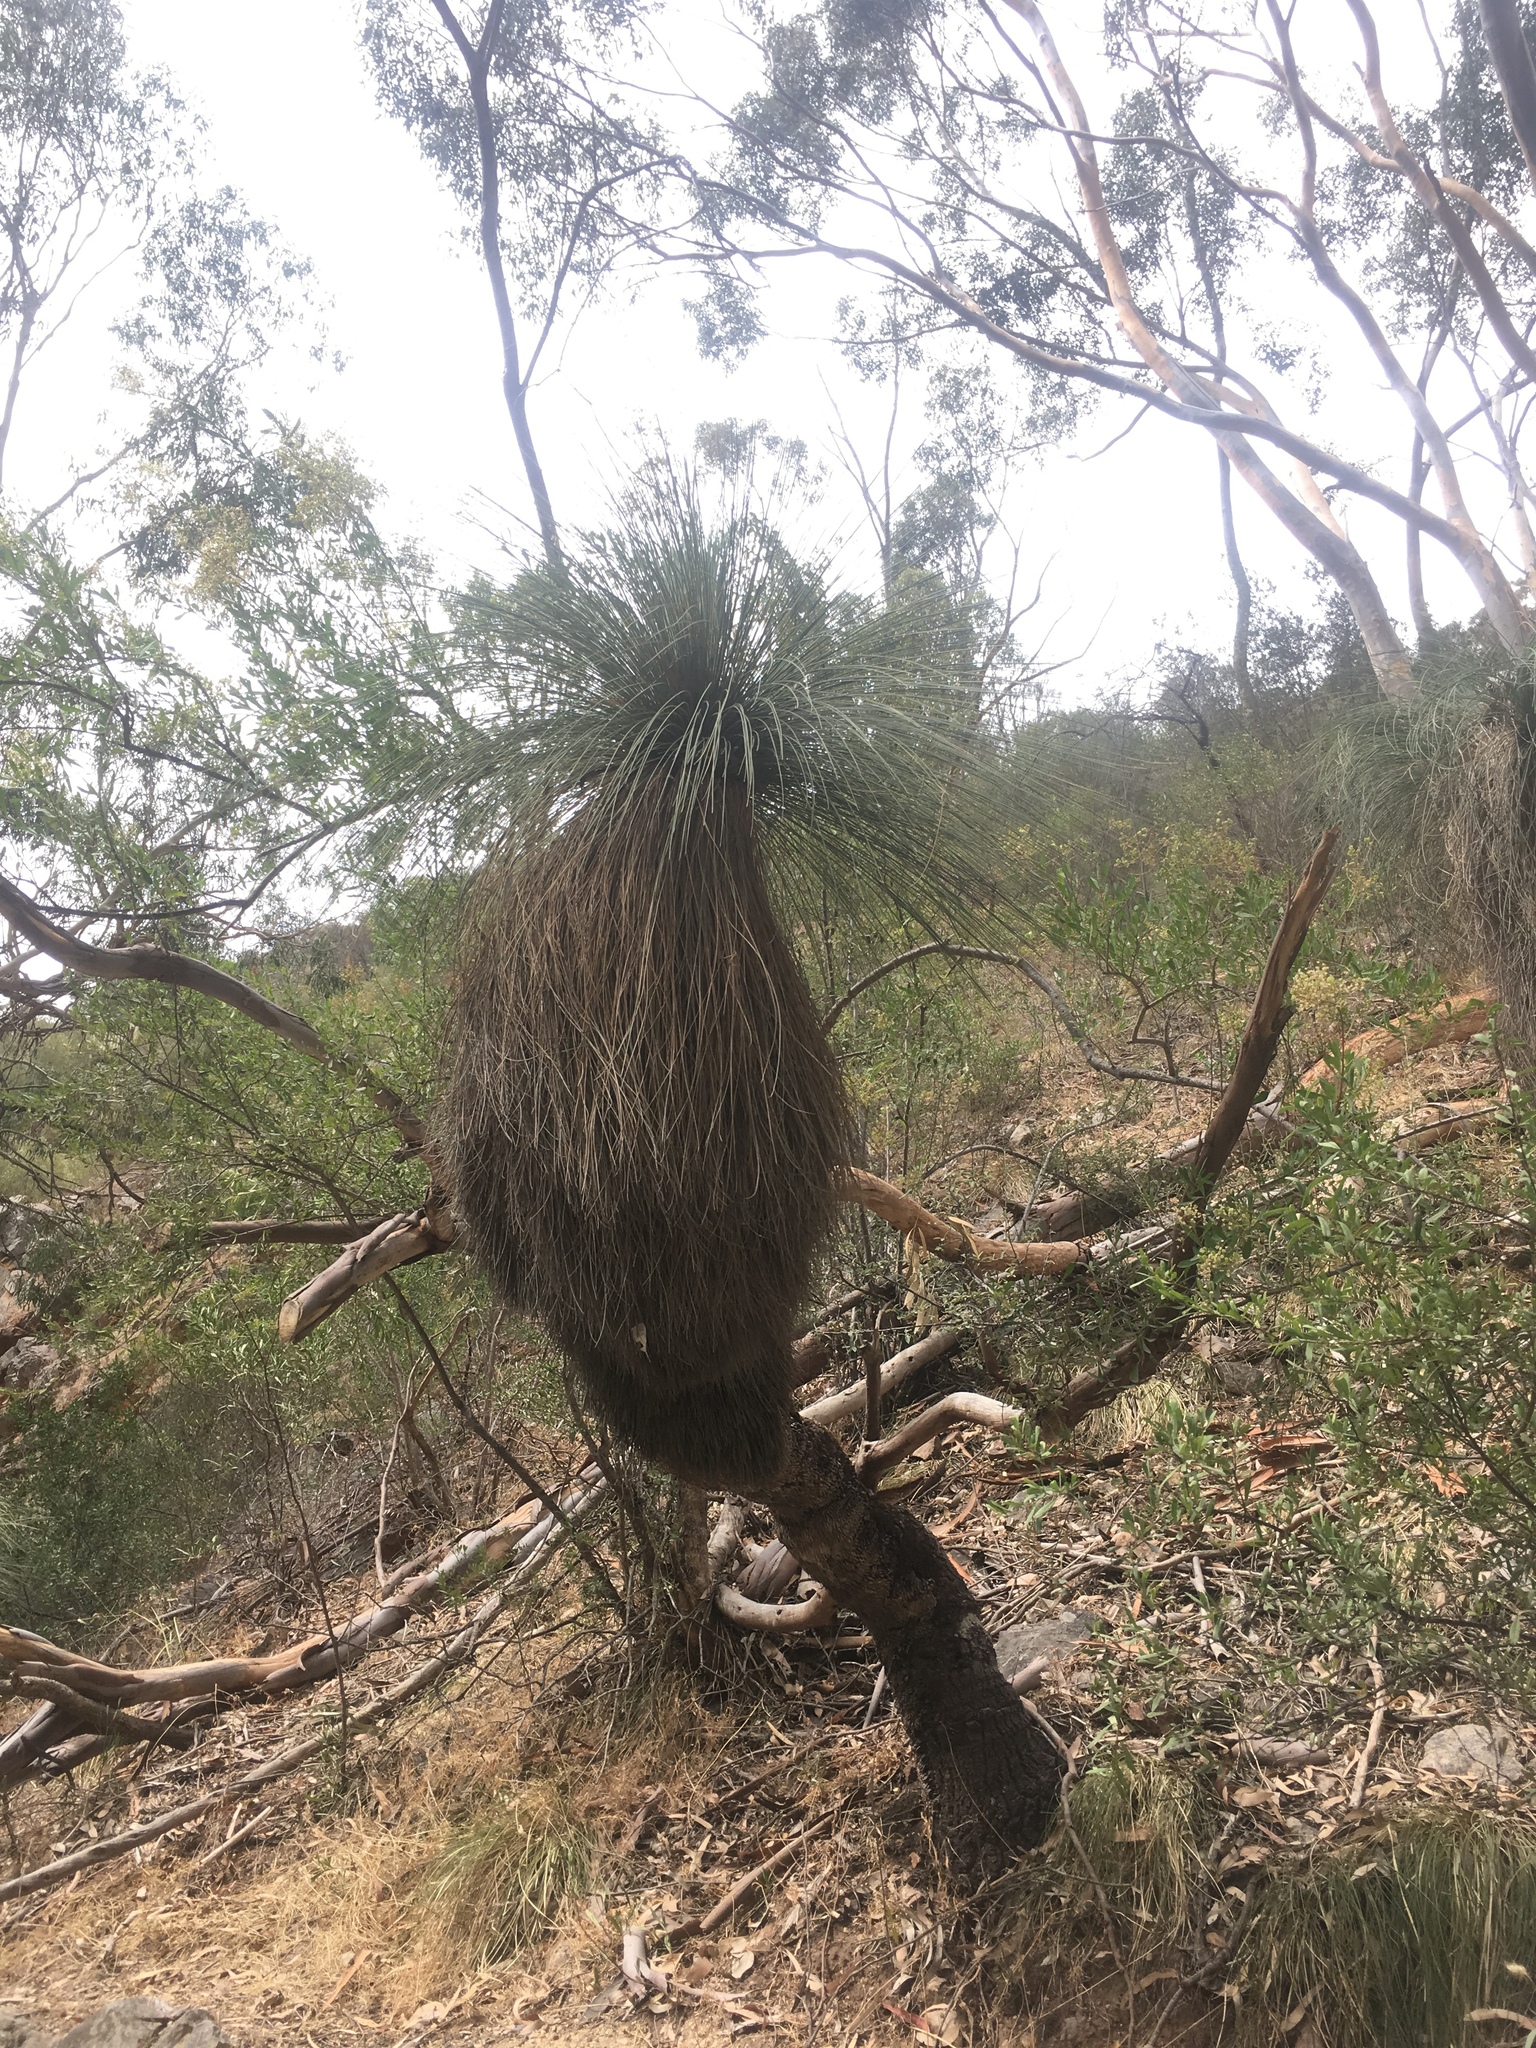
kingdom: Plantae
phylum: Tracheophyta
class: Liliopsida
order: Asparagales
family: Asphodelaceae
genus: Xanthorrhoea
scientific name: Xanthorrhoea quadrangulata
